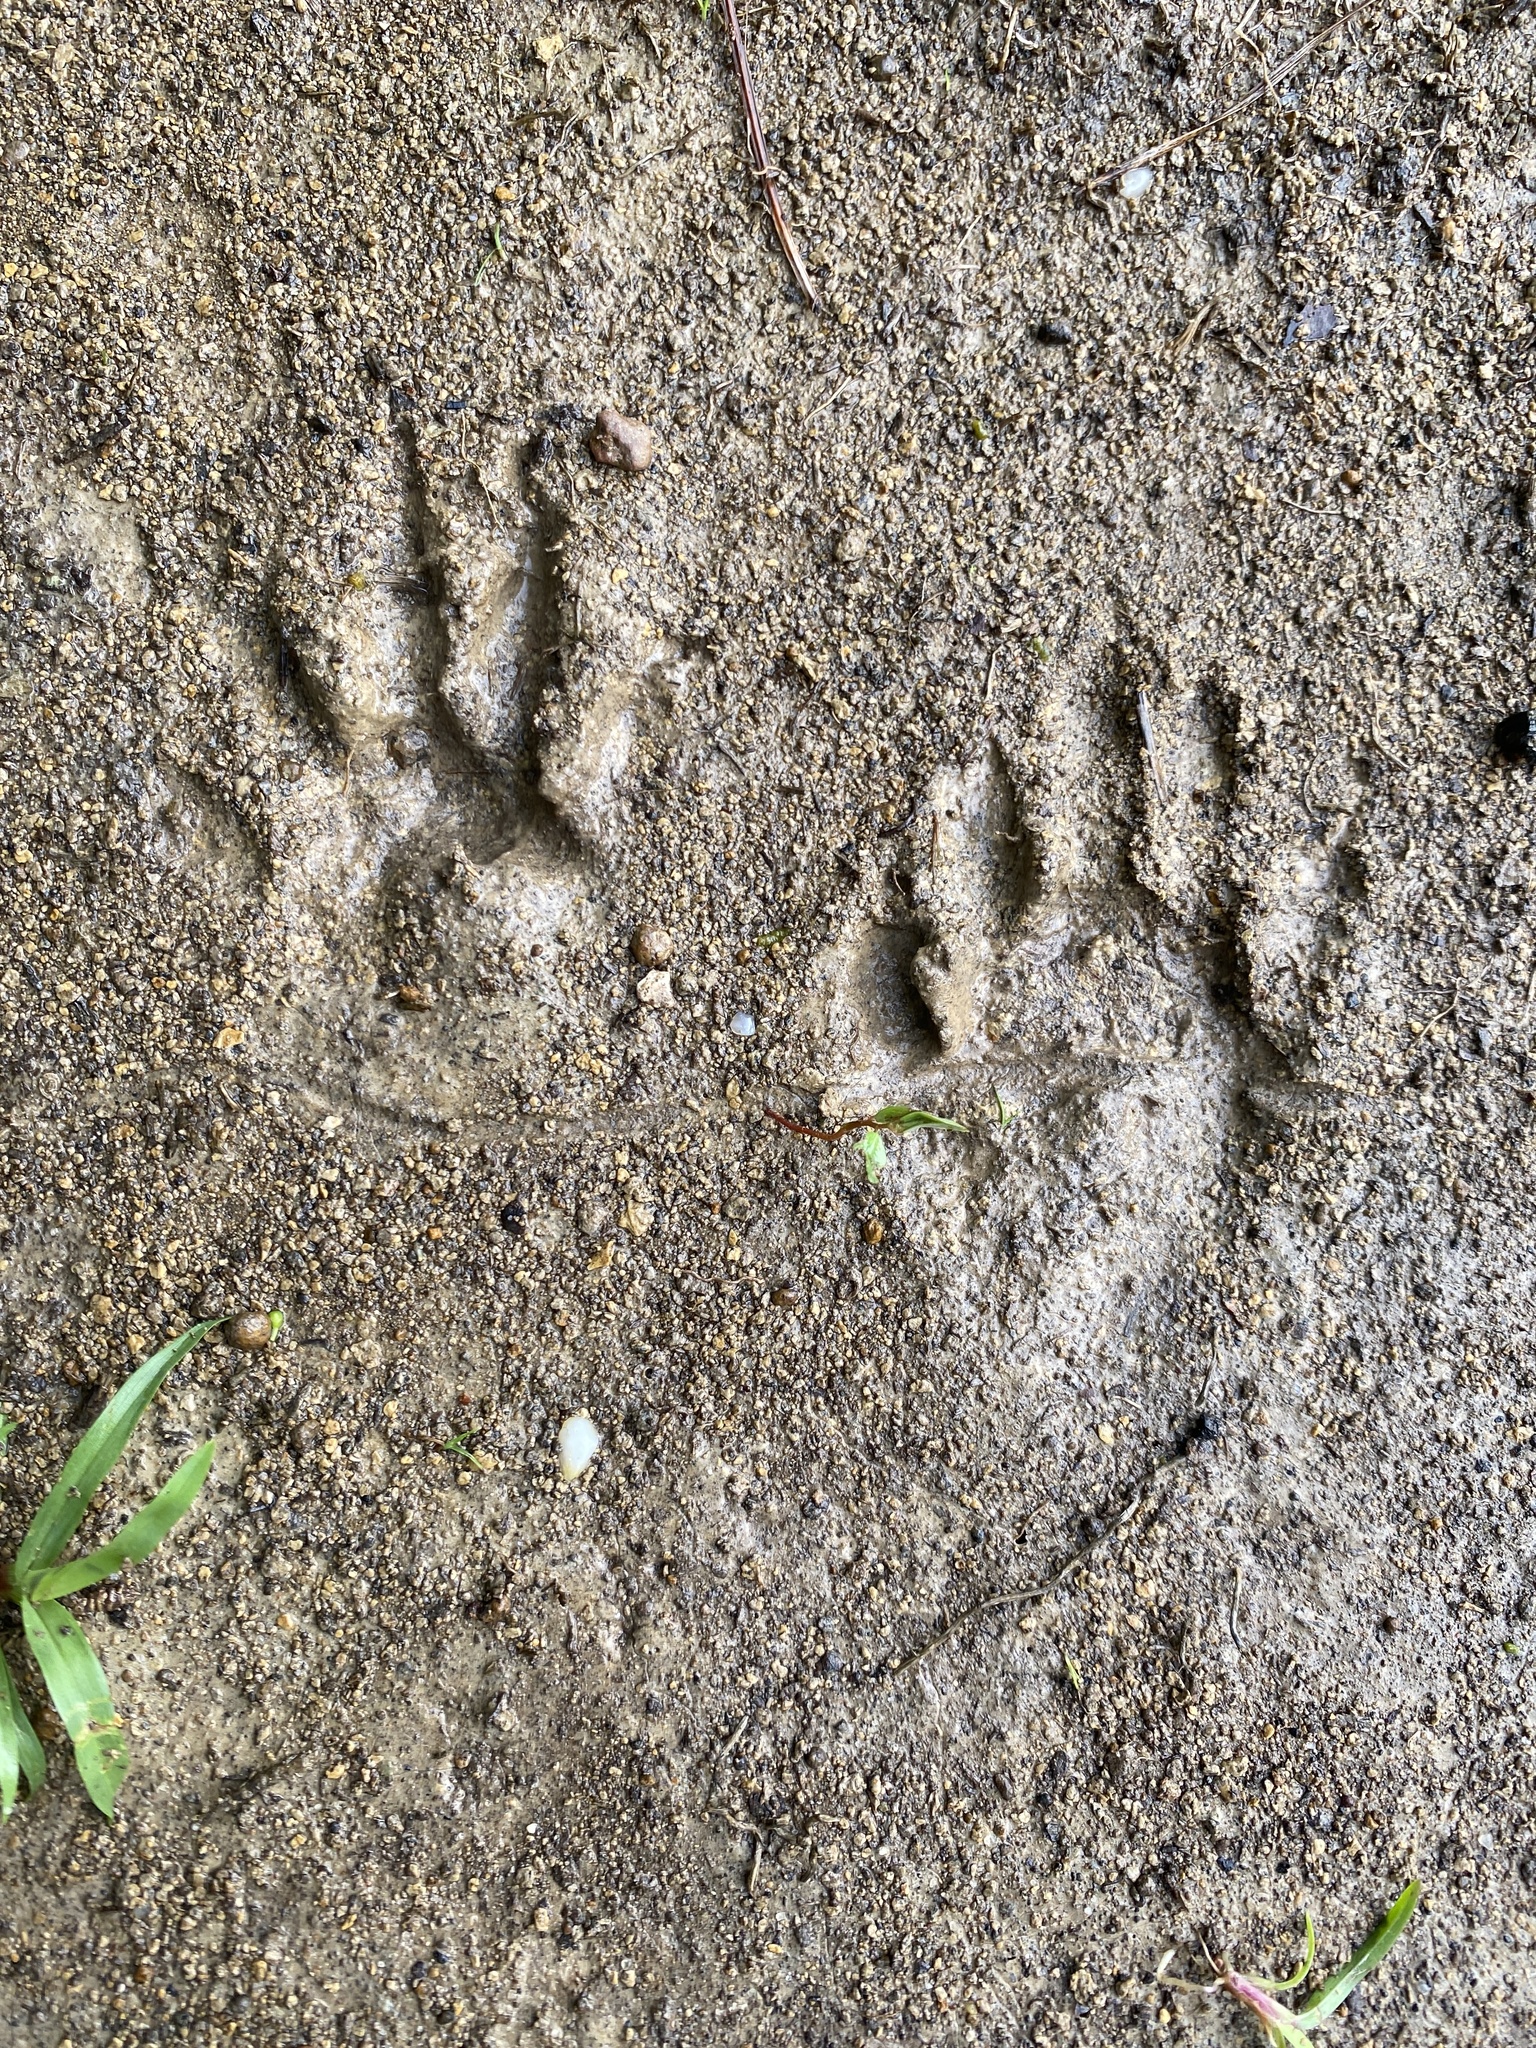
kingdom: Animalia
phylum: Chordata
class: Mammalia
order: Carnivora
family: Procyonidae
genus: Procyon
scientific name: Procyon lotor
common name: Raccoon
